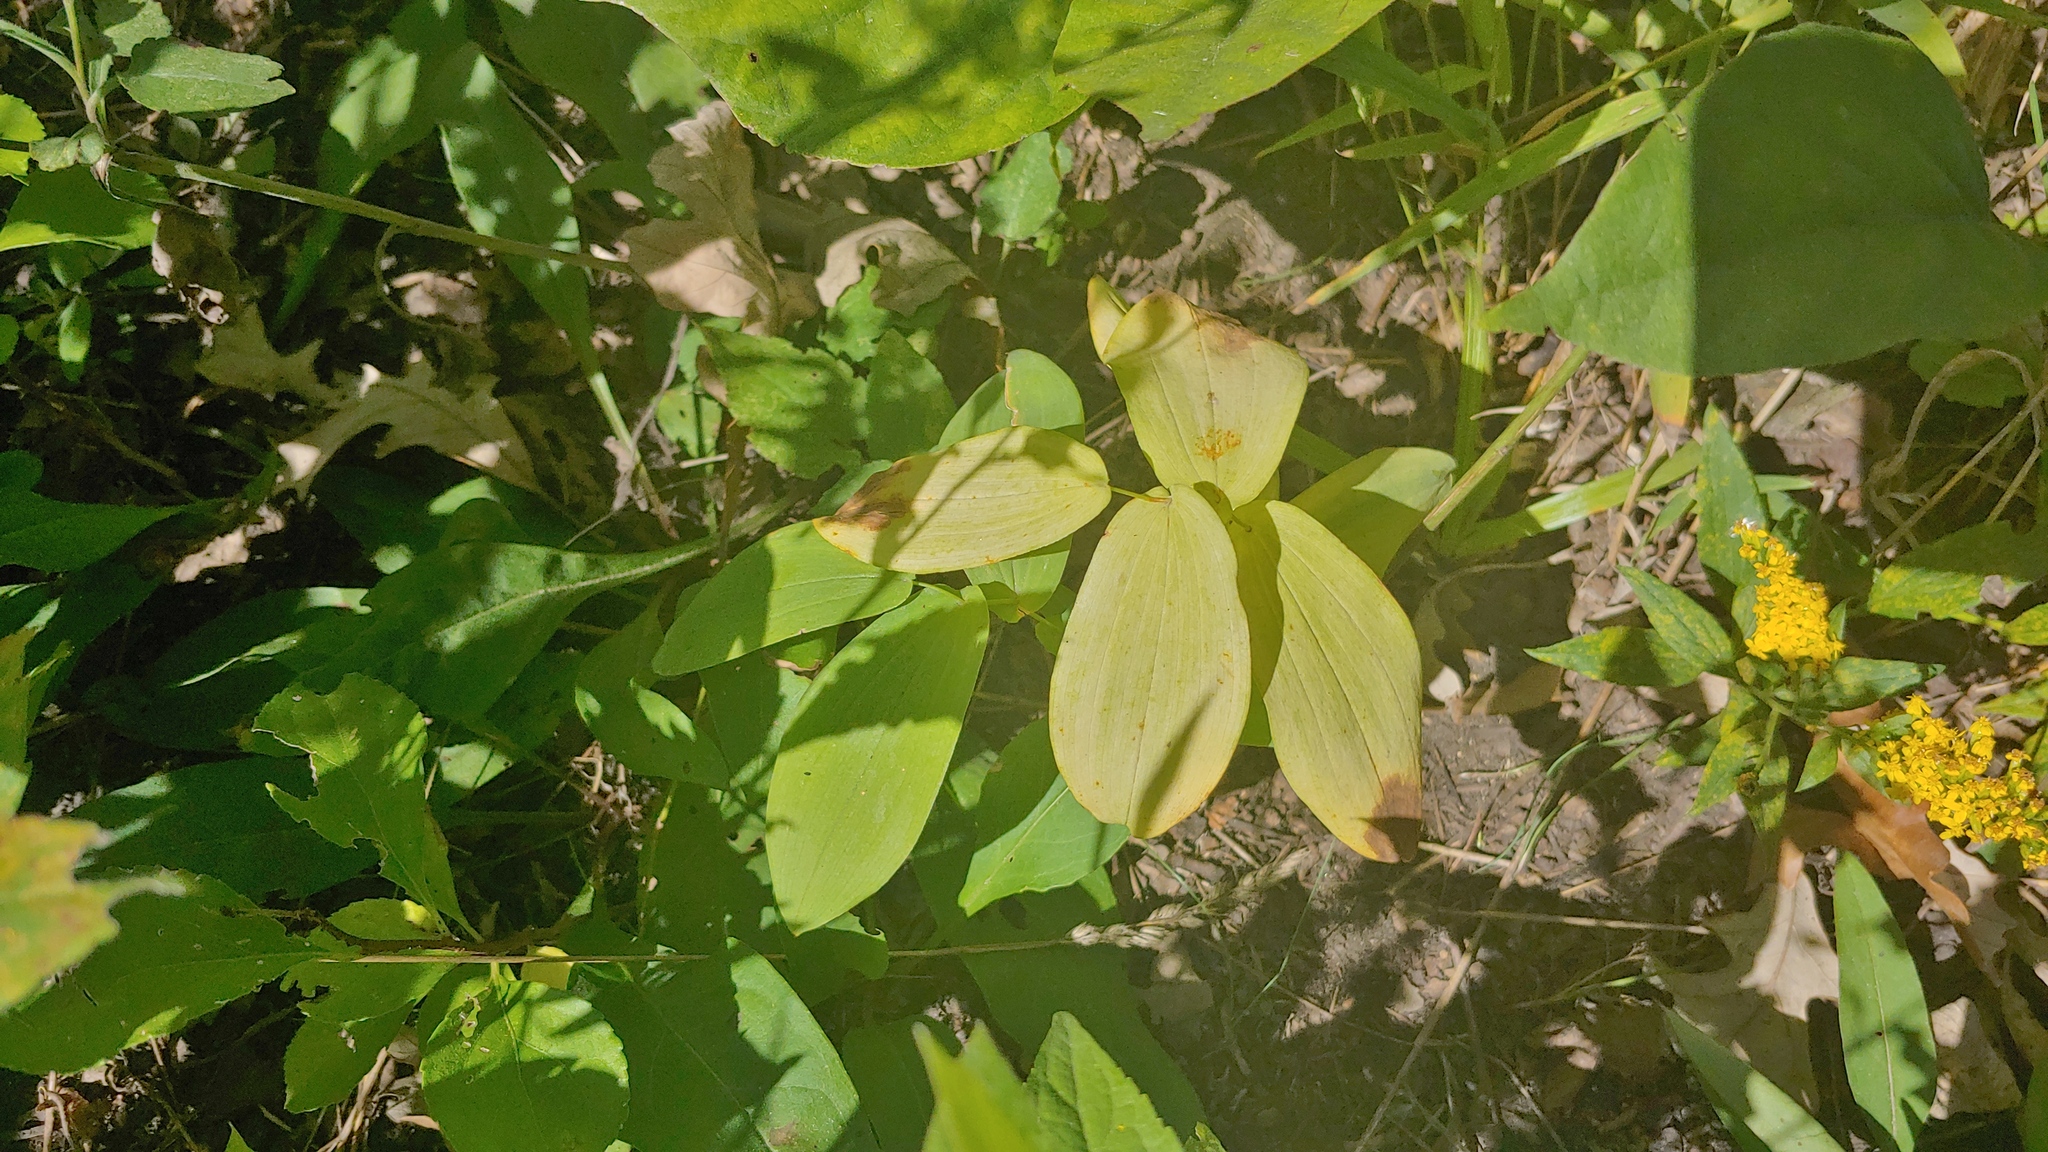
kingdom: Plantae
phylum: Tracheophyta
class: Liliopsida
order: Liliales
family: Colchicaceae
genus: Uvularia
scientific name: Uvularia grandiflora
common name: Bellwort
